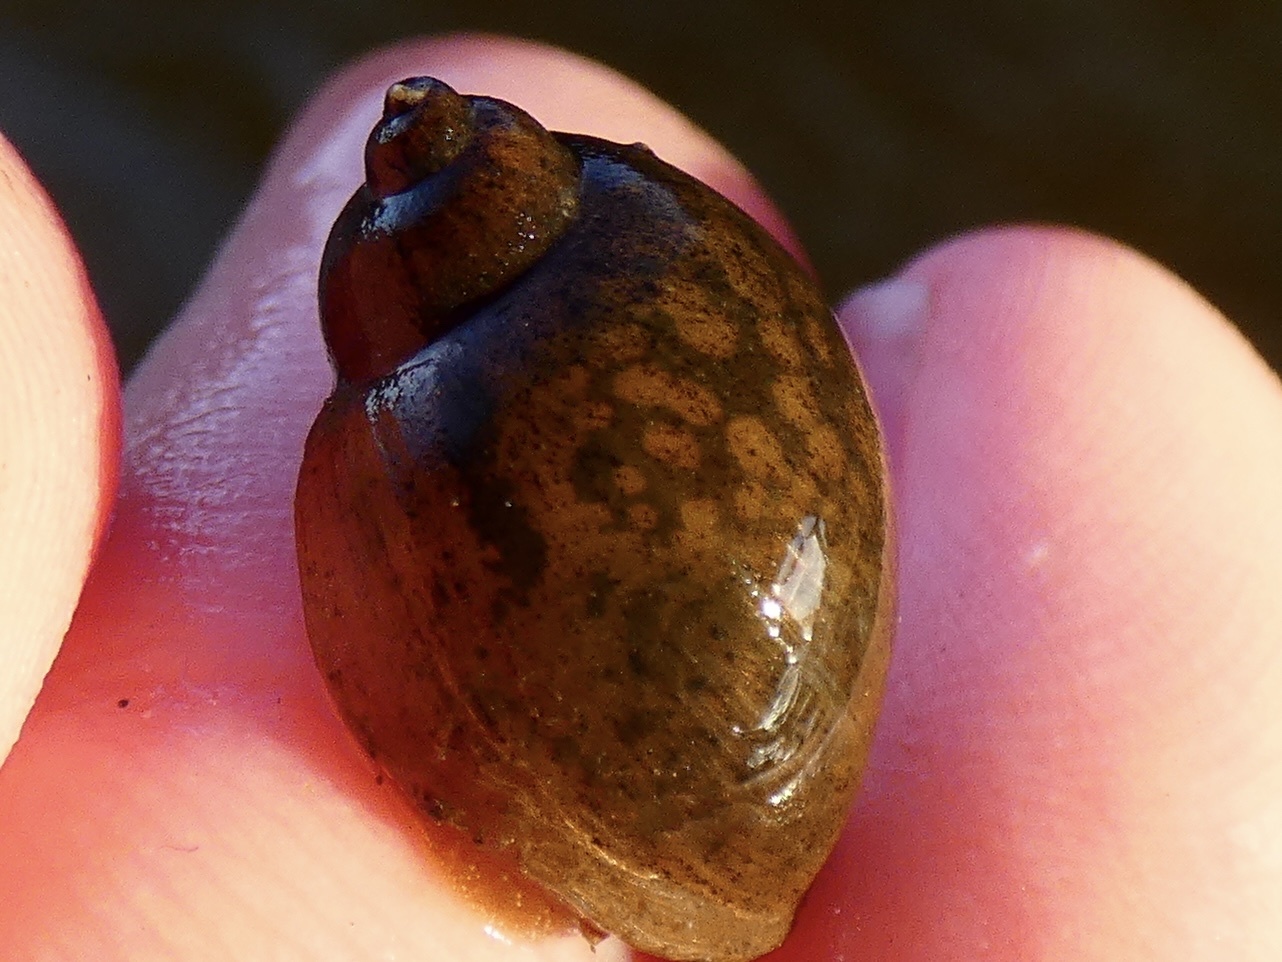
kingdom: Animalia
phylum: Mollusca
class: Gastropoda
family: Lymnaeidae
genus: Ampullaceana
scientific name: Ampullaceana balthica
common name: Wandering pond snail
